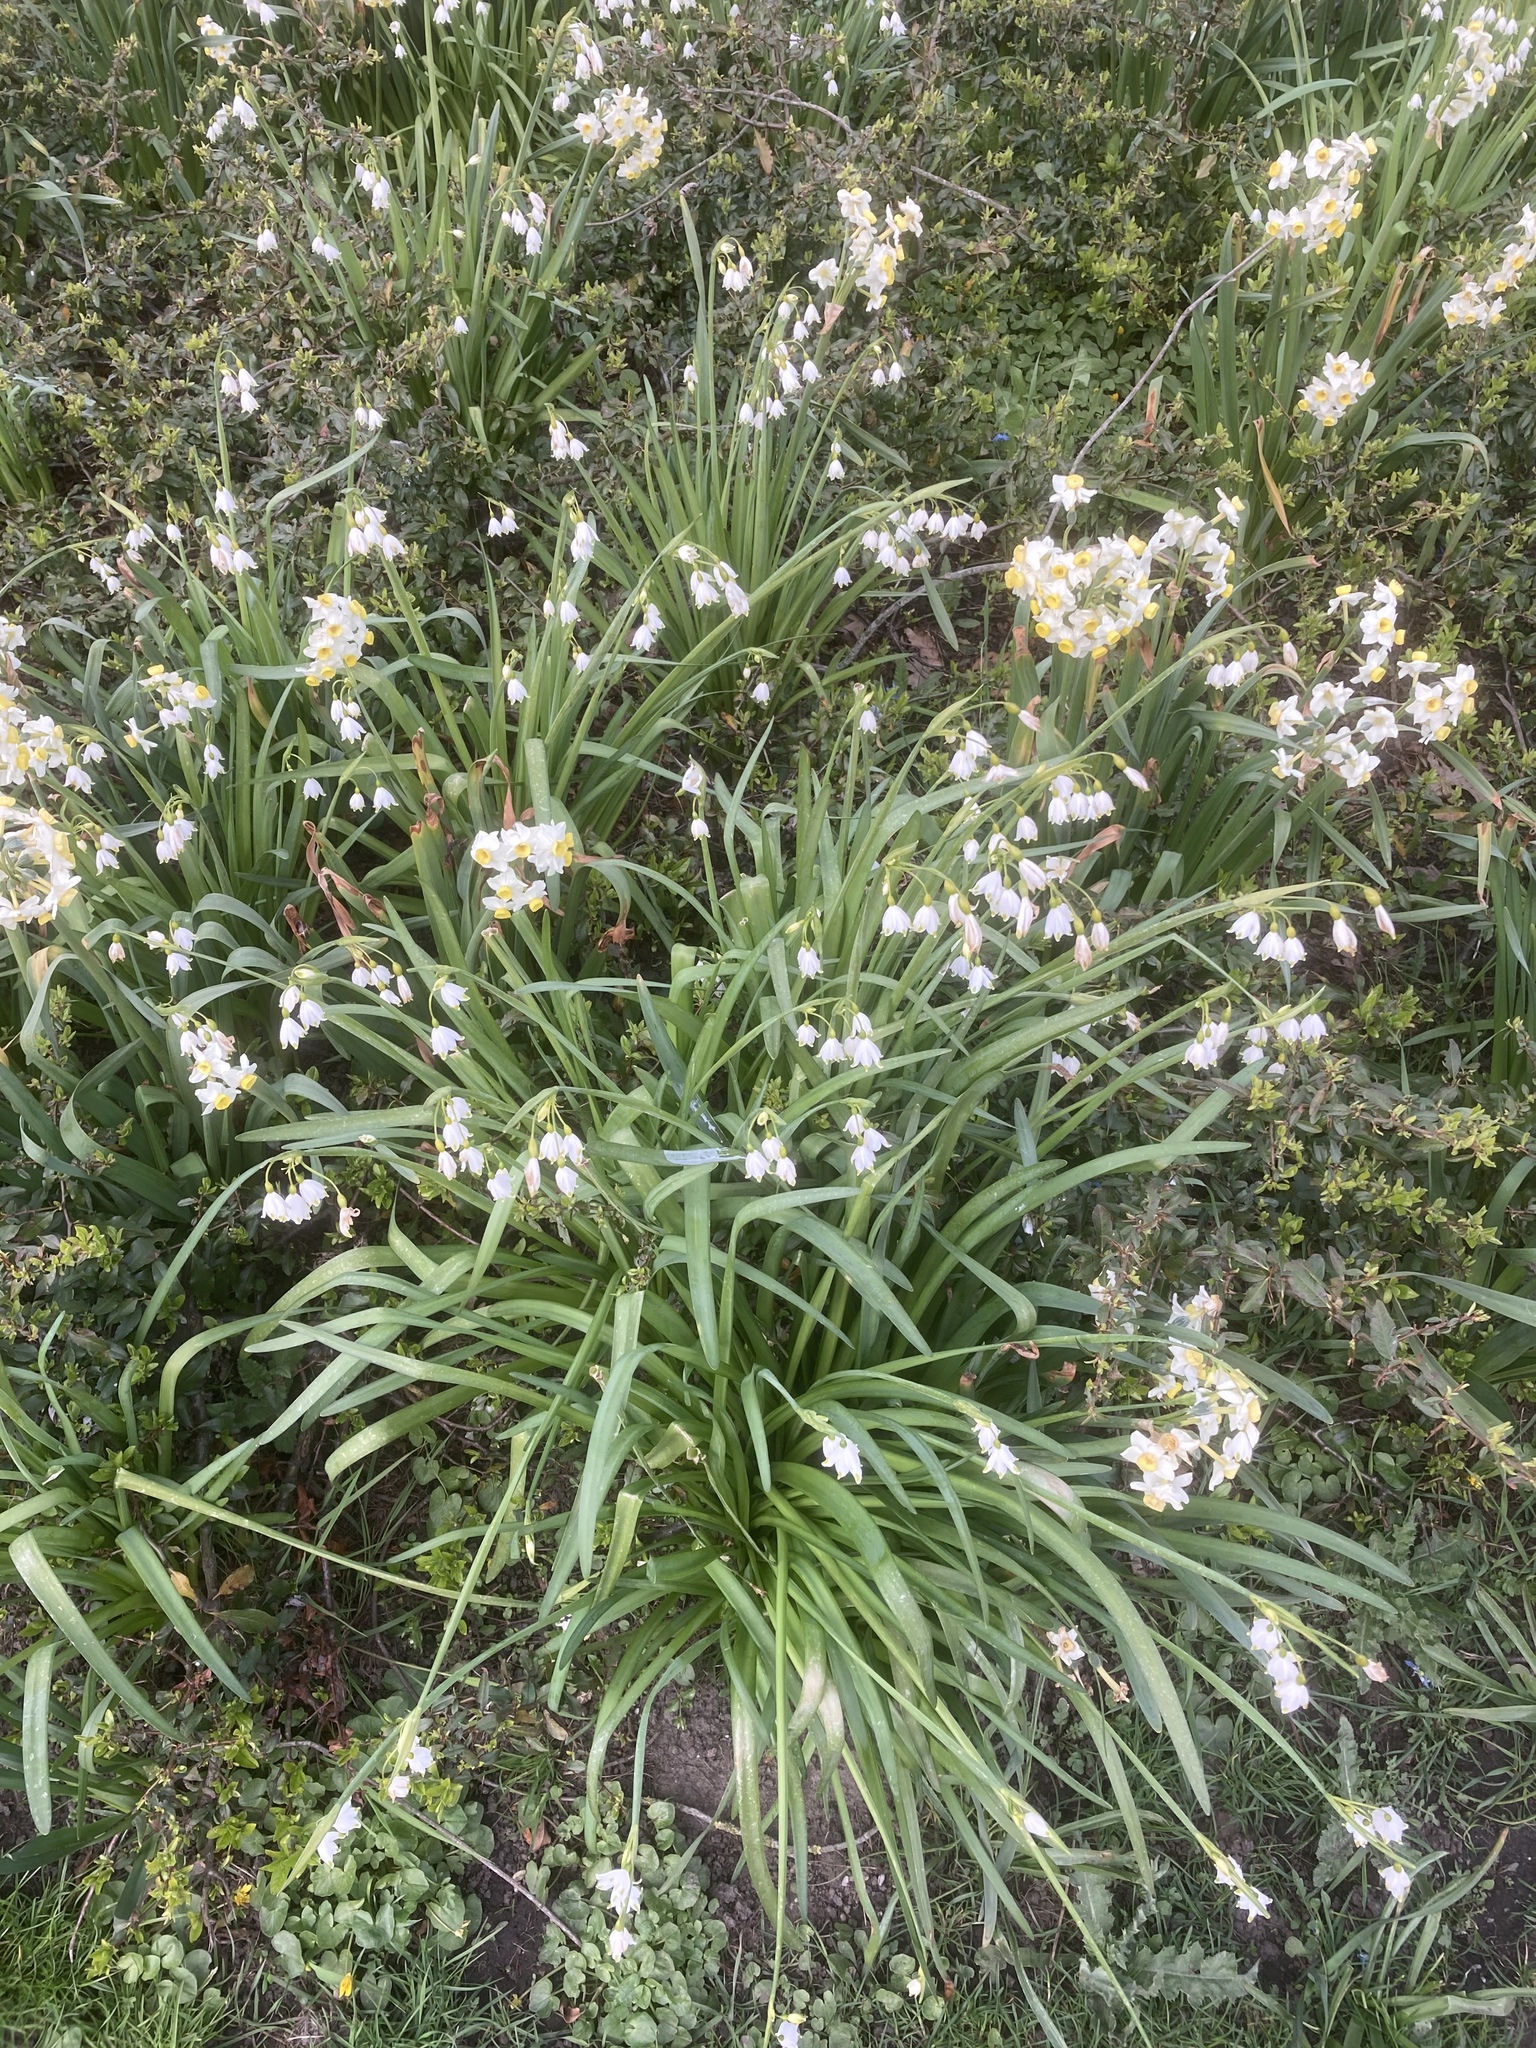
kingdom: Plantae
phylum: Tracheophyta
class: Liliopsida
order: Asparagales
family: Amaryllidaceae
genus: Leucojum
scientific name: Leucojum aestivum
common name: Summer snowflake
